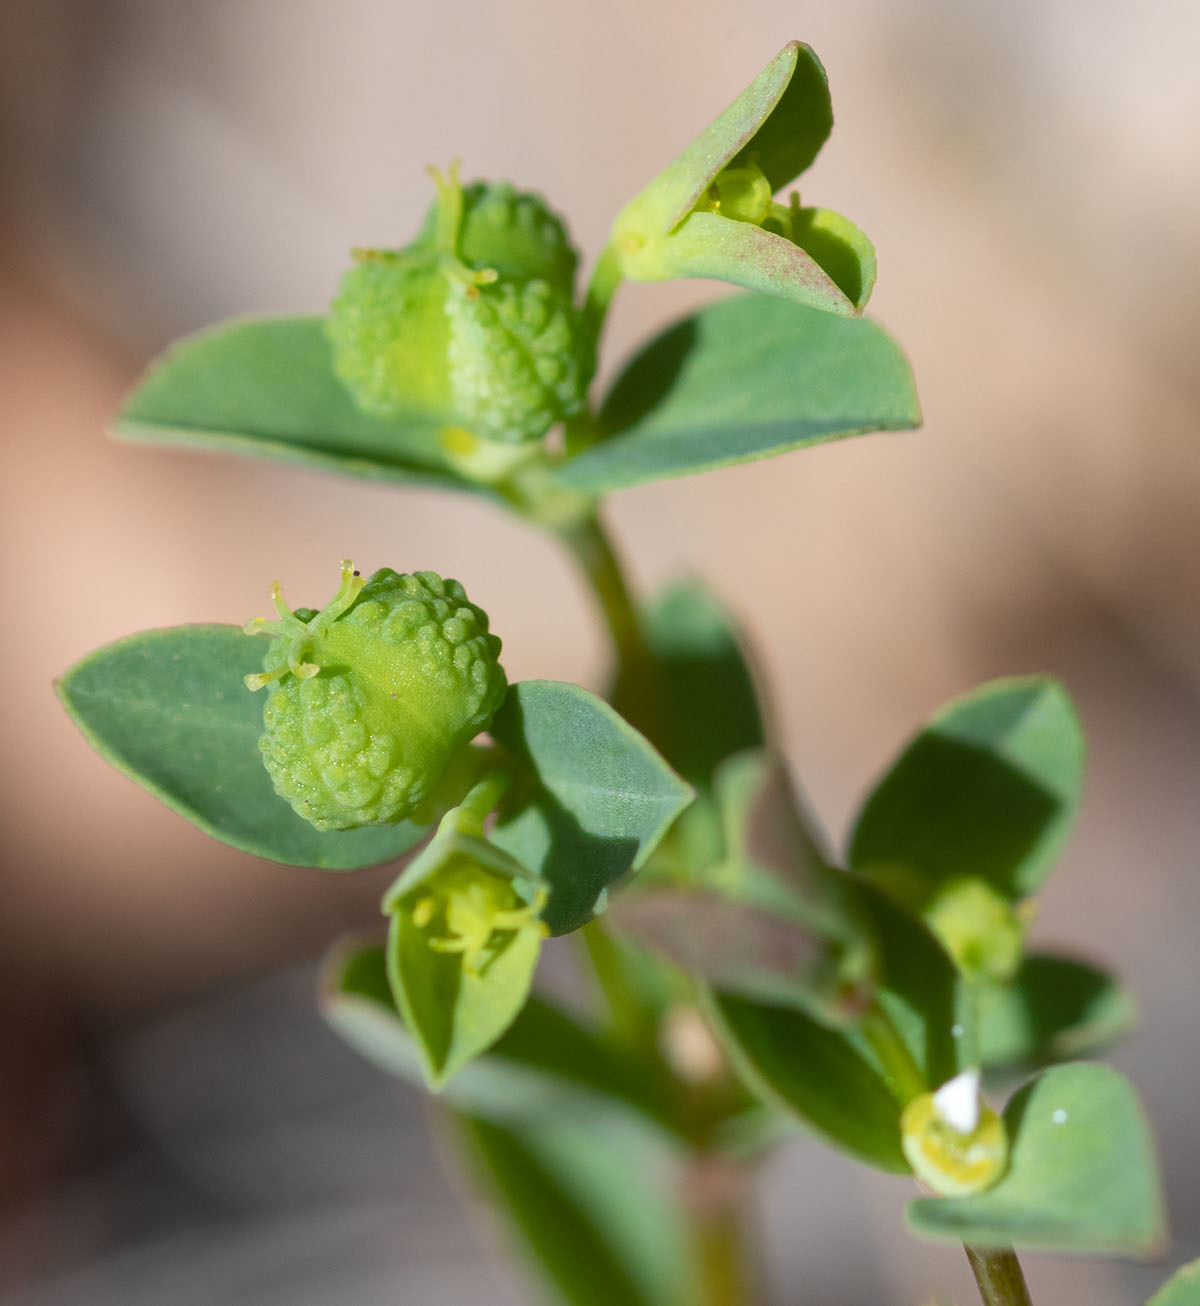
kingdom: Plantae
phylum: Tracheophyta
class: Magnoliopsida
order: Malpighiales
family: Euphorbiaceae
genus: Euphorbia
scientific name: Euphorbia spathulata
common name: Blunt spurge
